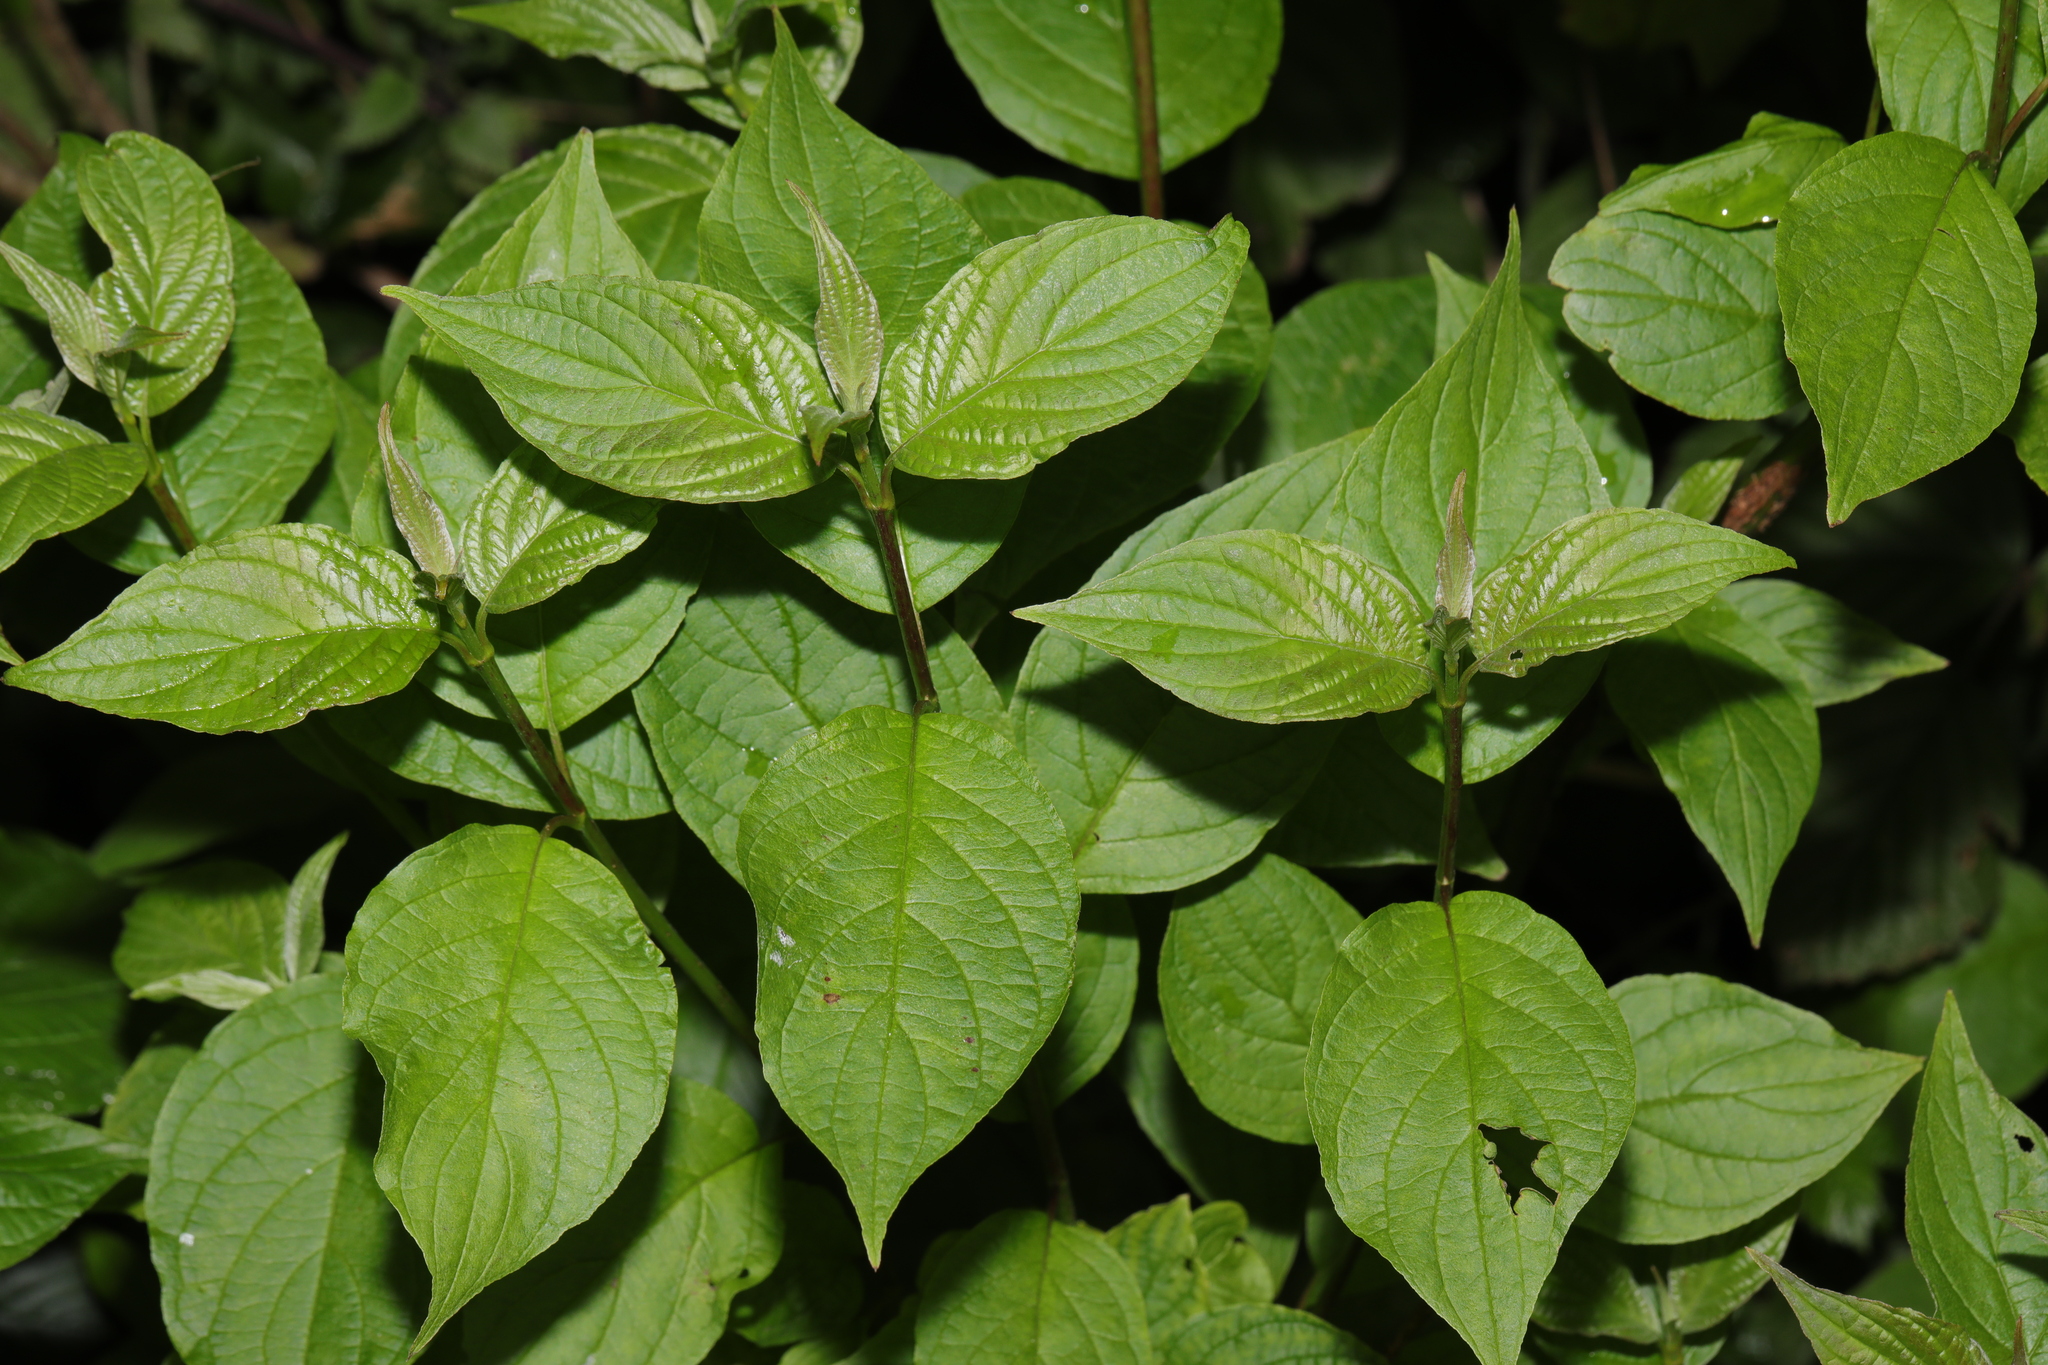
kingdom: Plantae
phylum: Tracheophyta
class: Magnoliopsida
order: Cornales
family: Cornaceae
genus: Cornus
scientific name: Cornus sanguinea
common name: Dogwood
